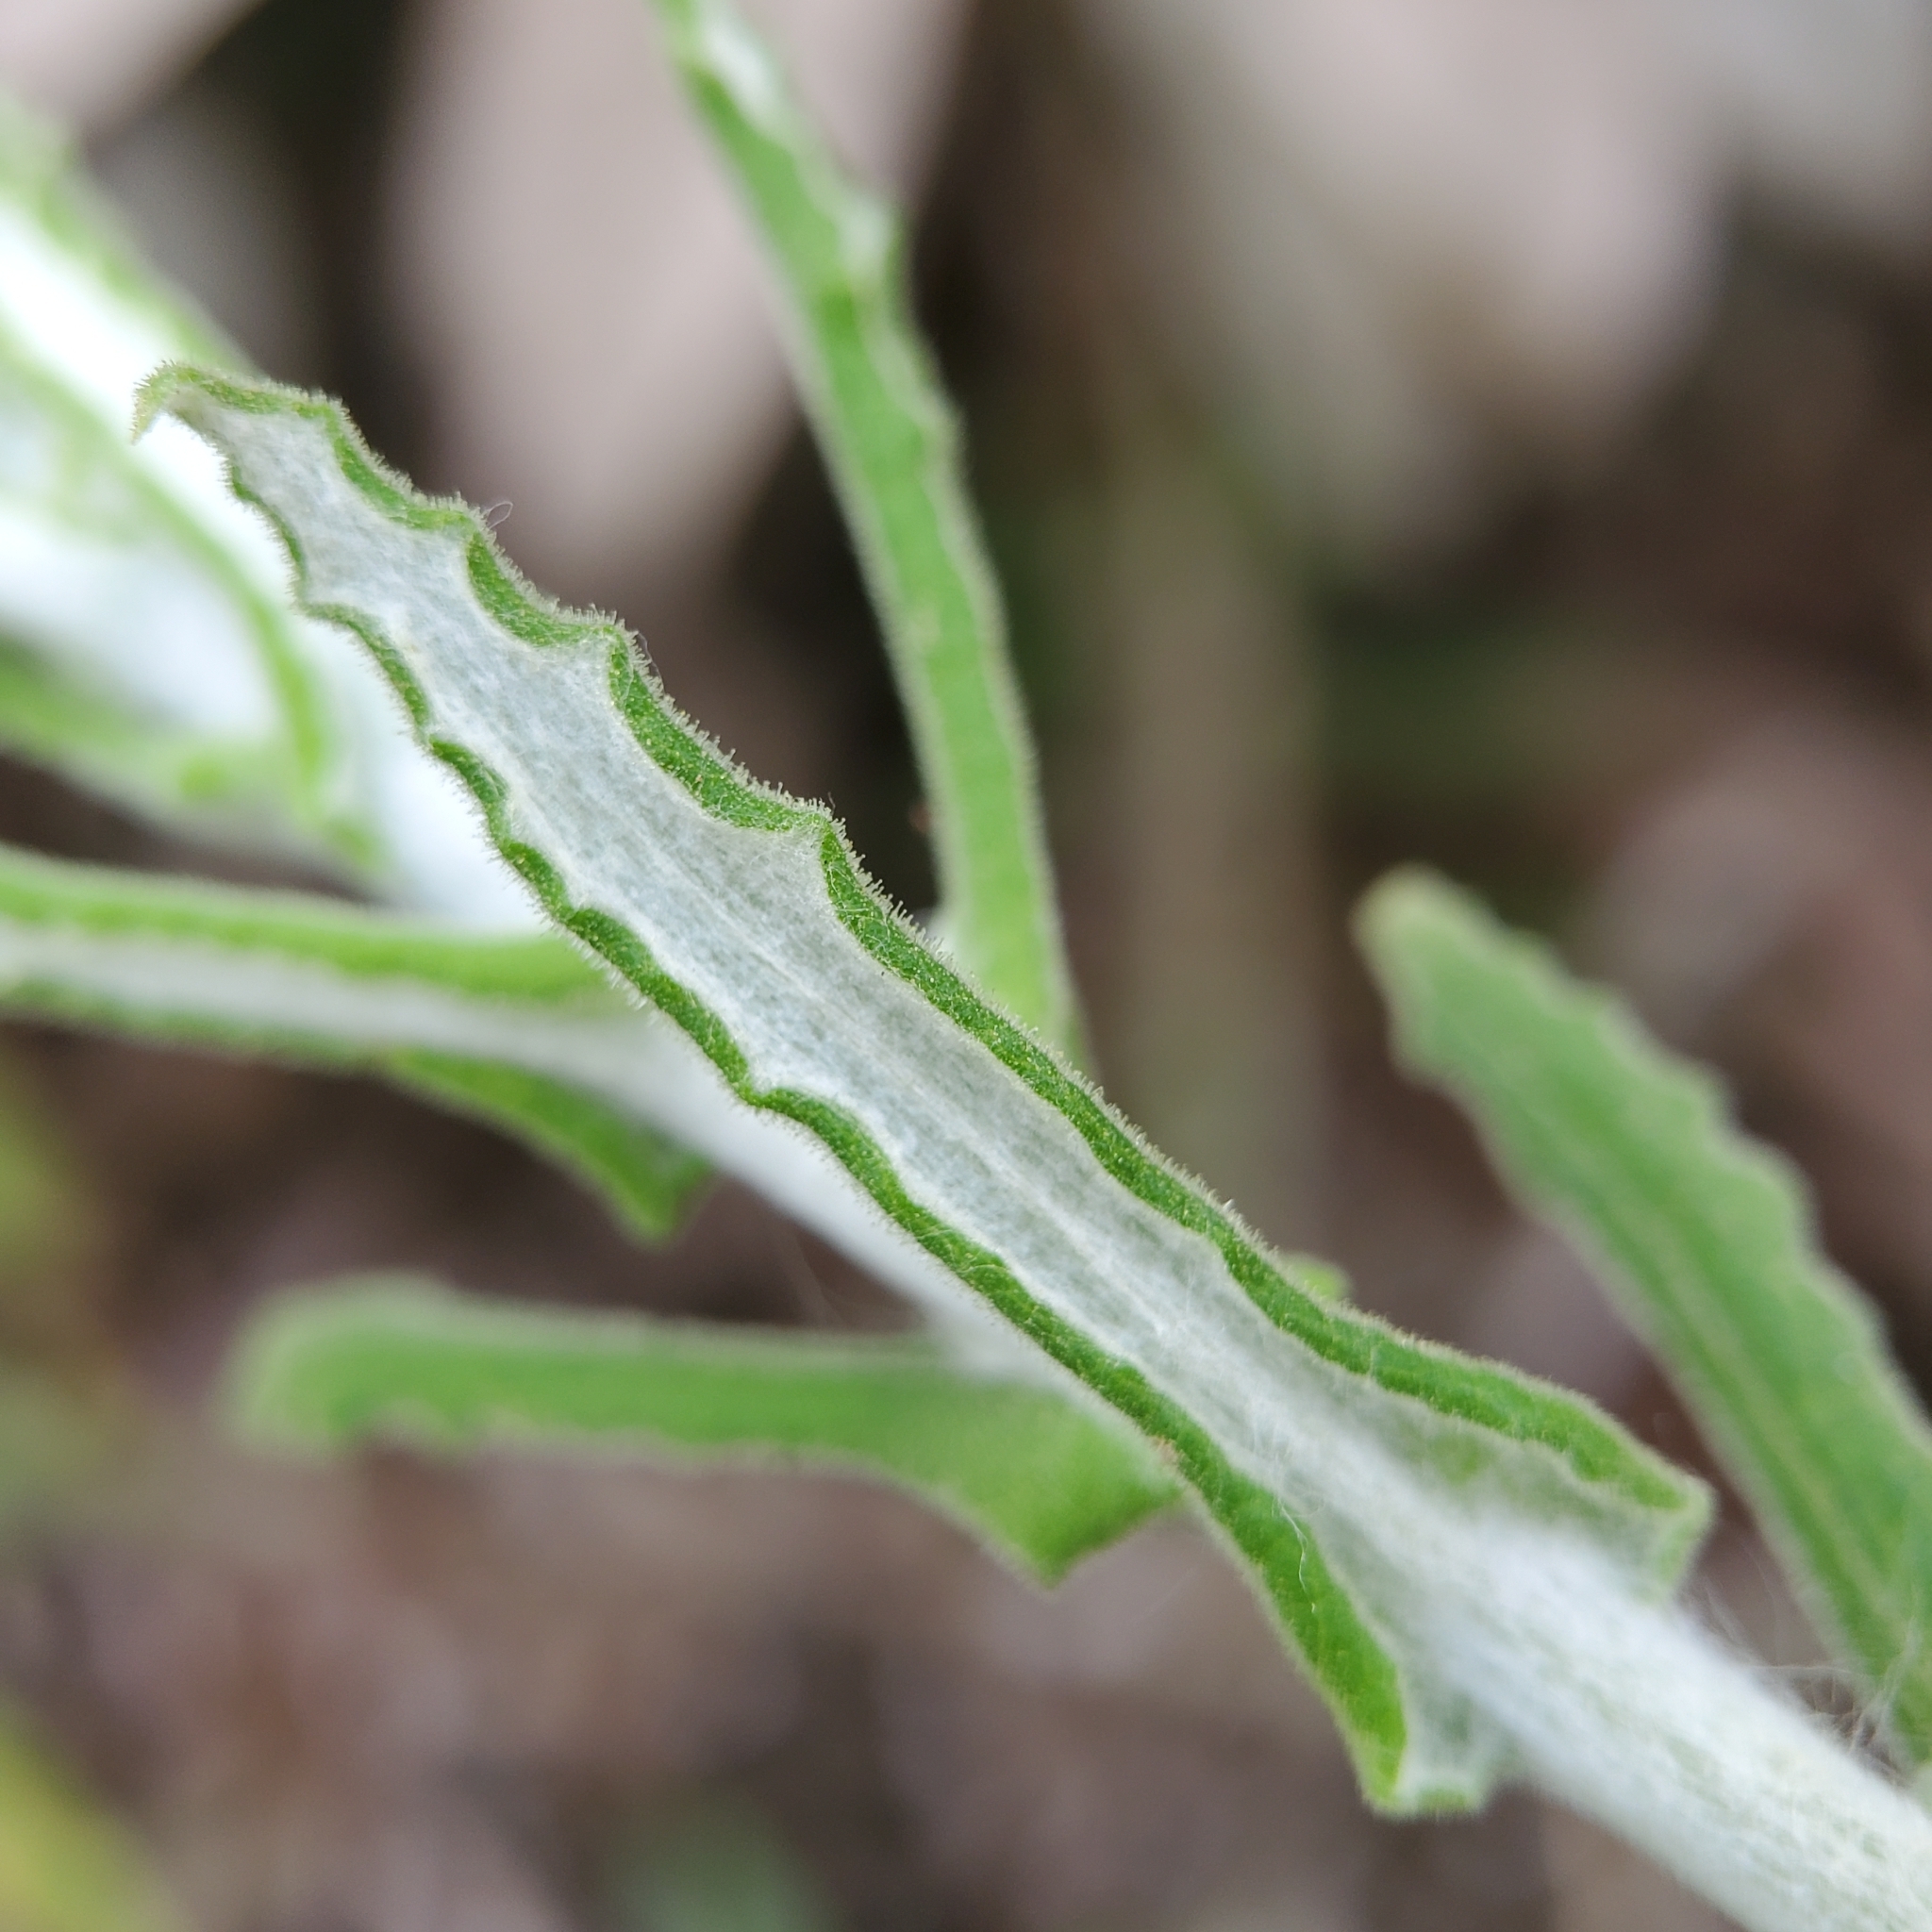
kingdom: Plantae
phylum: Tracheophyta
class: Magnoliopsida
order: Asterales
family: Asteraceae
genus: Pseudognaphalium
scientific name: Pseudognaphalium biolettii
